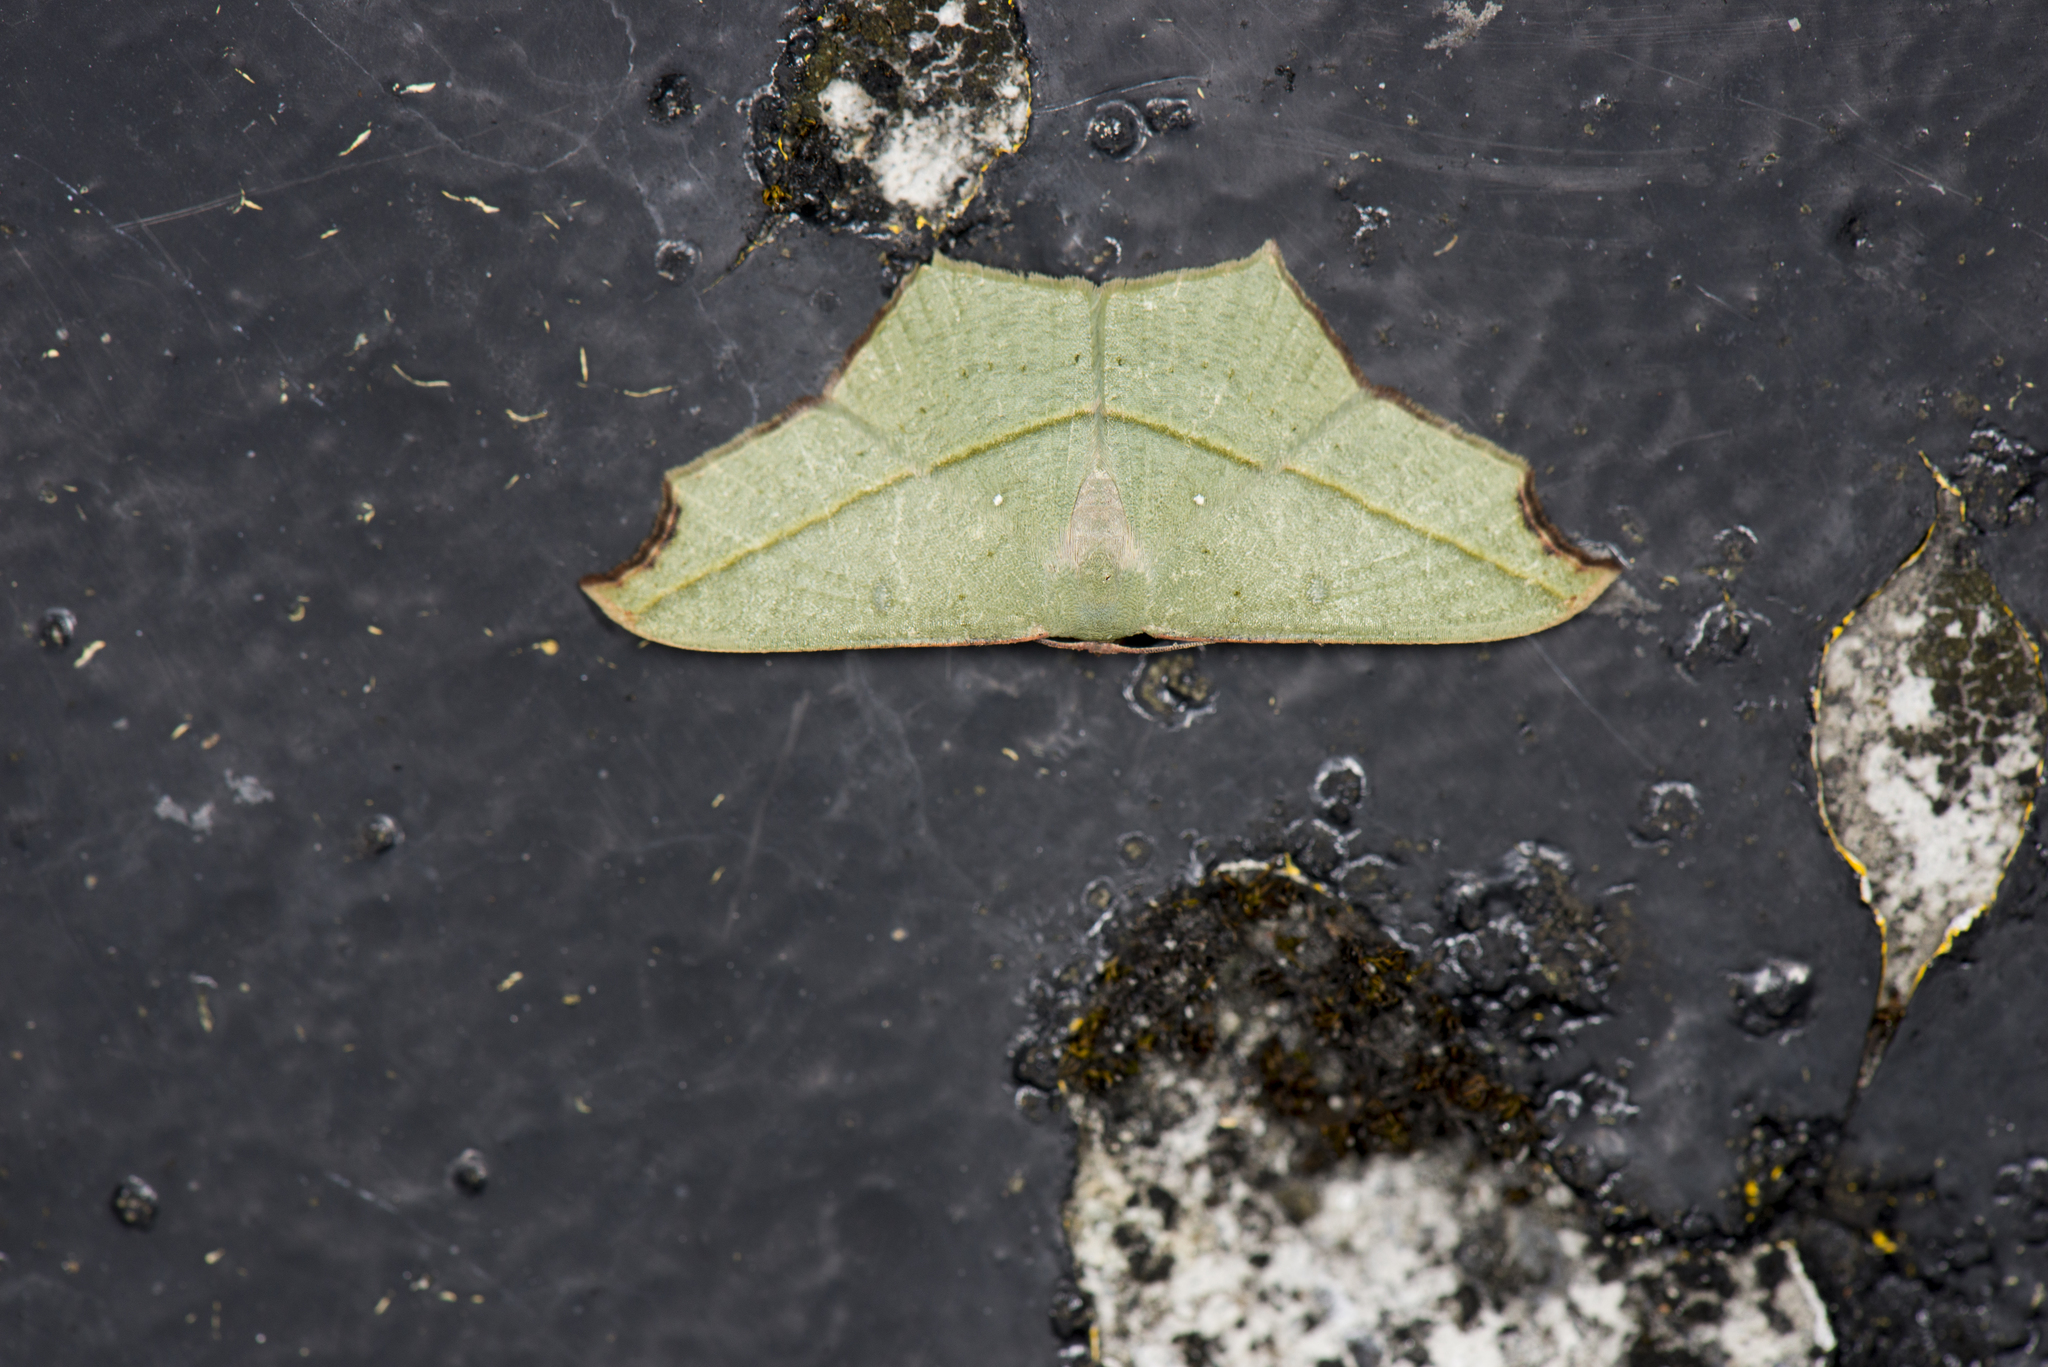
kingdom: Animalia
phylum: Arthropoda
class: Insecta
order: Lepidoptera
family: Geometridae
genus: Traminda
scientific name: Traminda aventiaria
